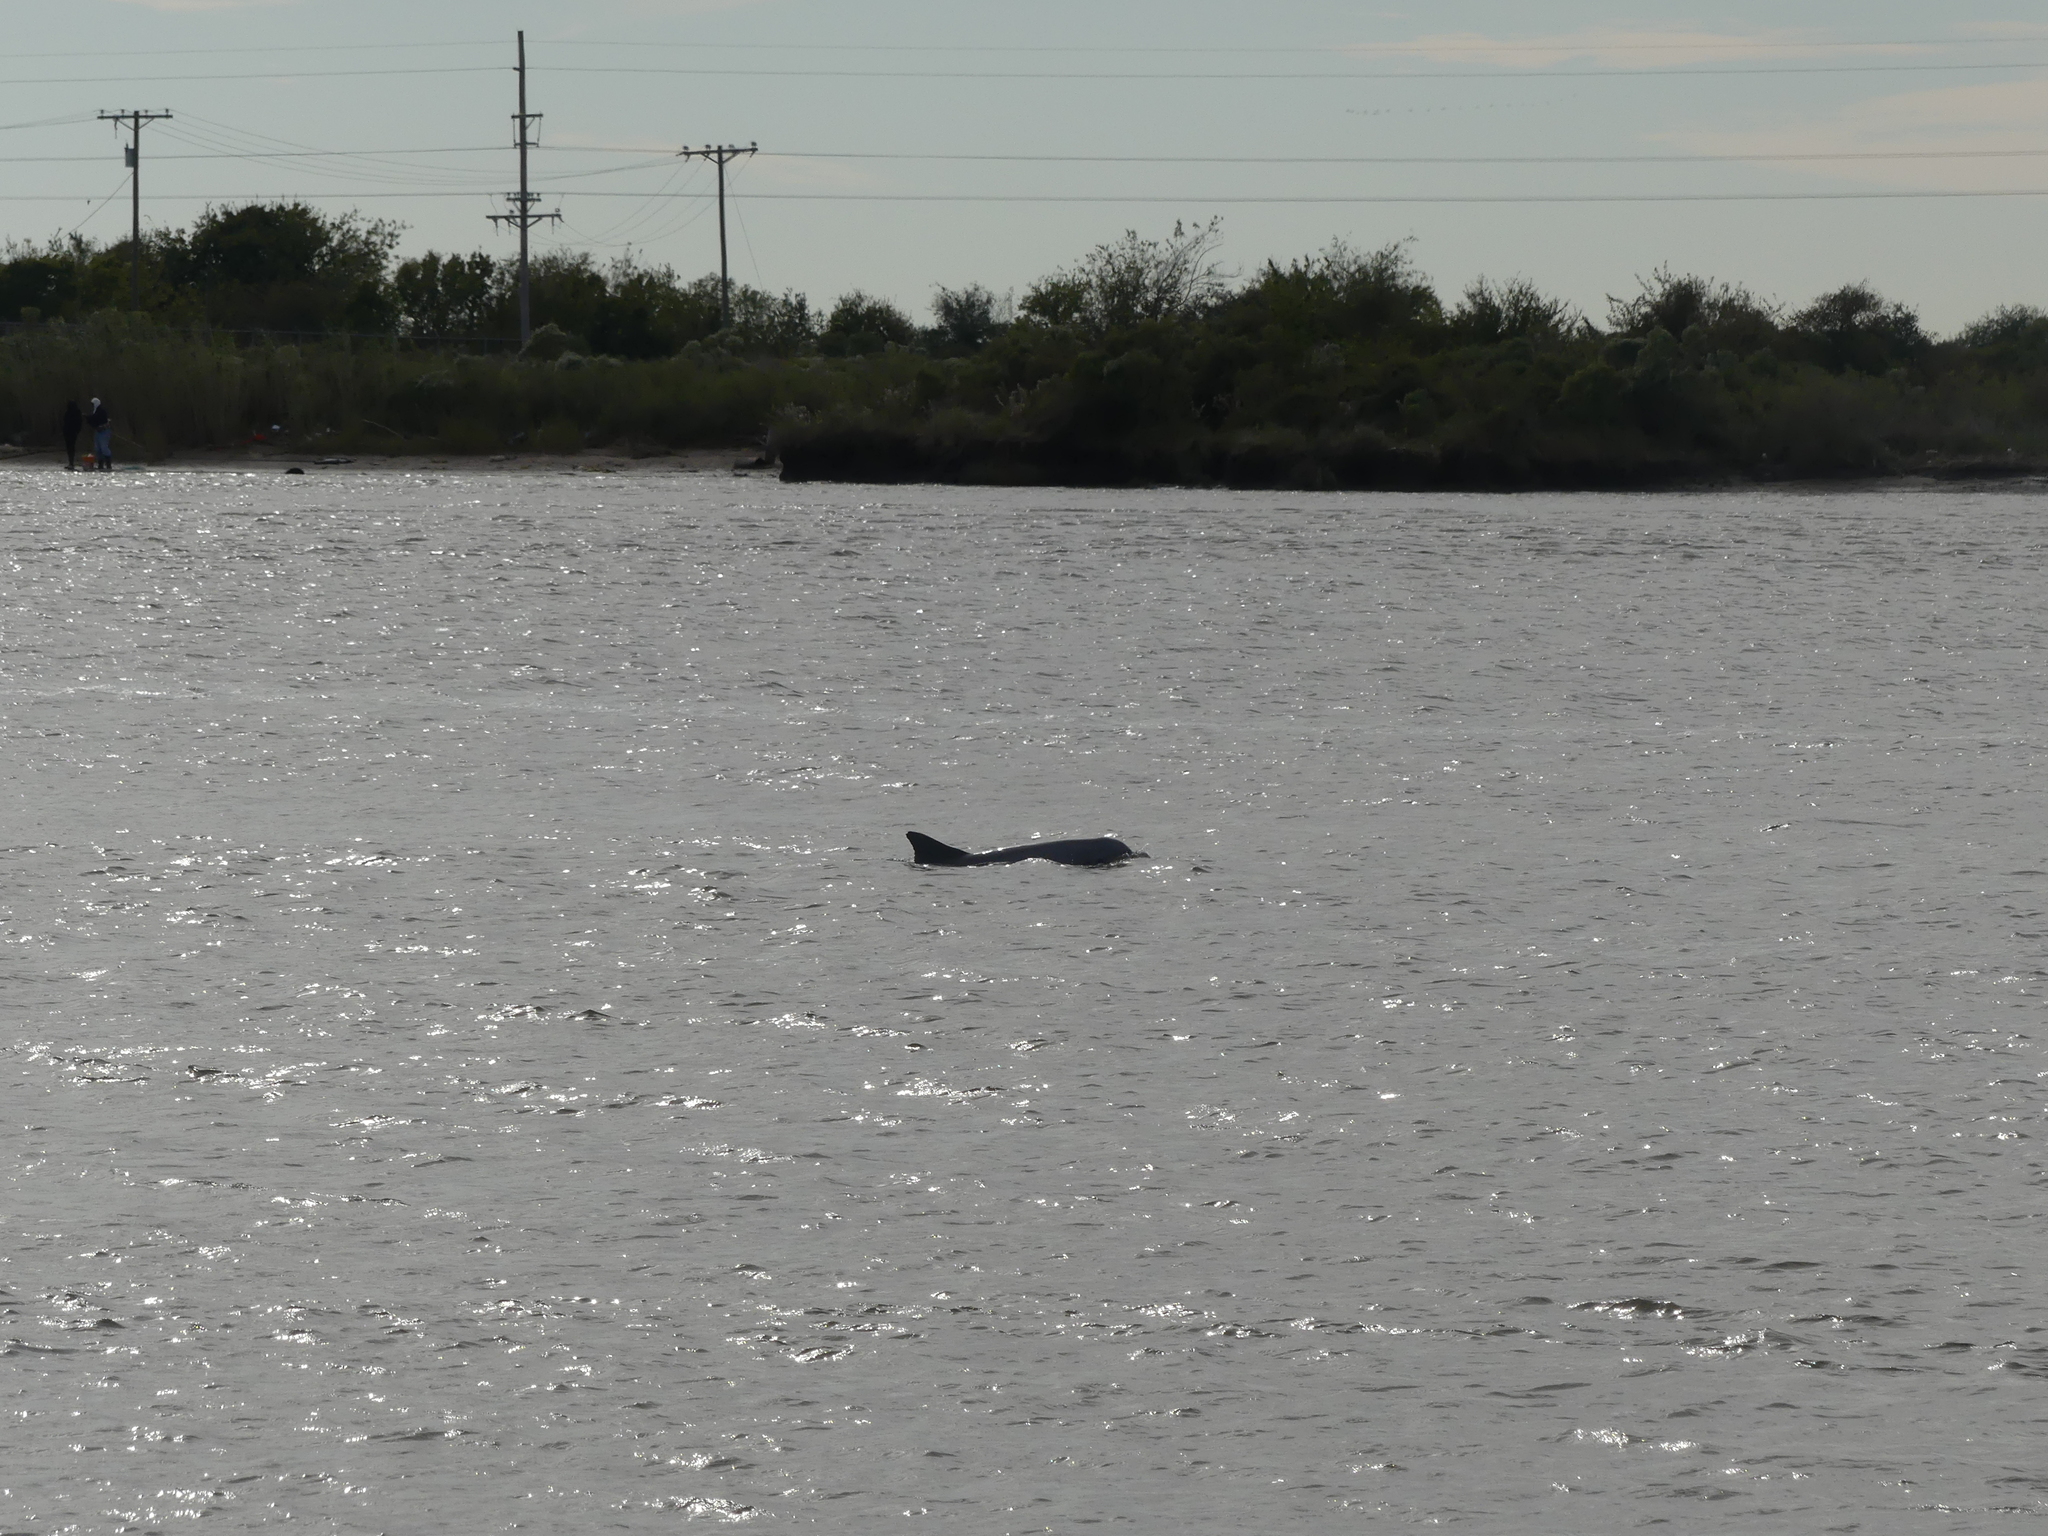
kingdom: Animalia
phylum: Chordata
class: Mammalia
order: Cetacea
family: Delphinidae
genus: Tursiops
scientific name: Tursiops truncatus
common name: Bottlenose dolphin
